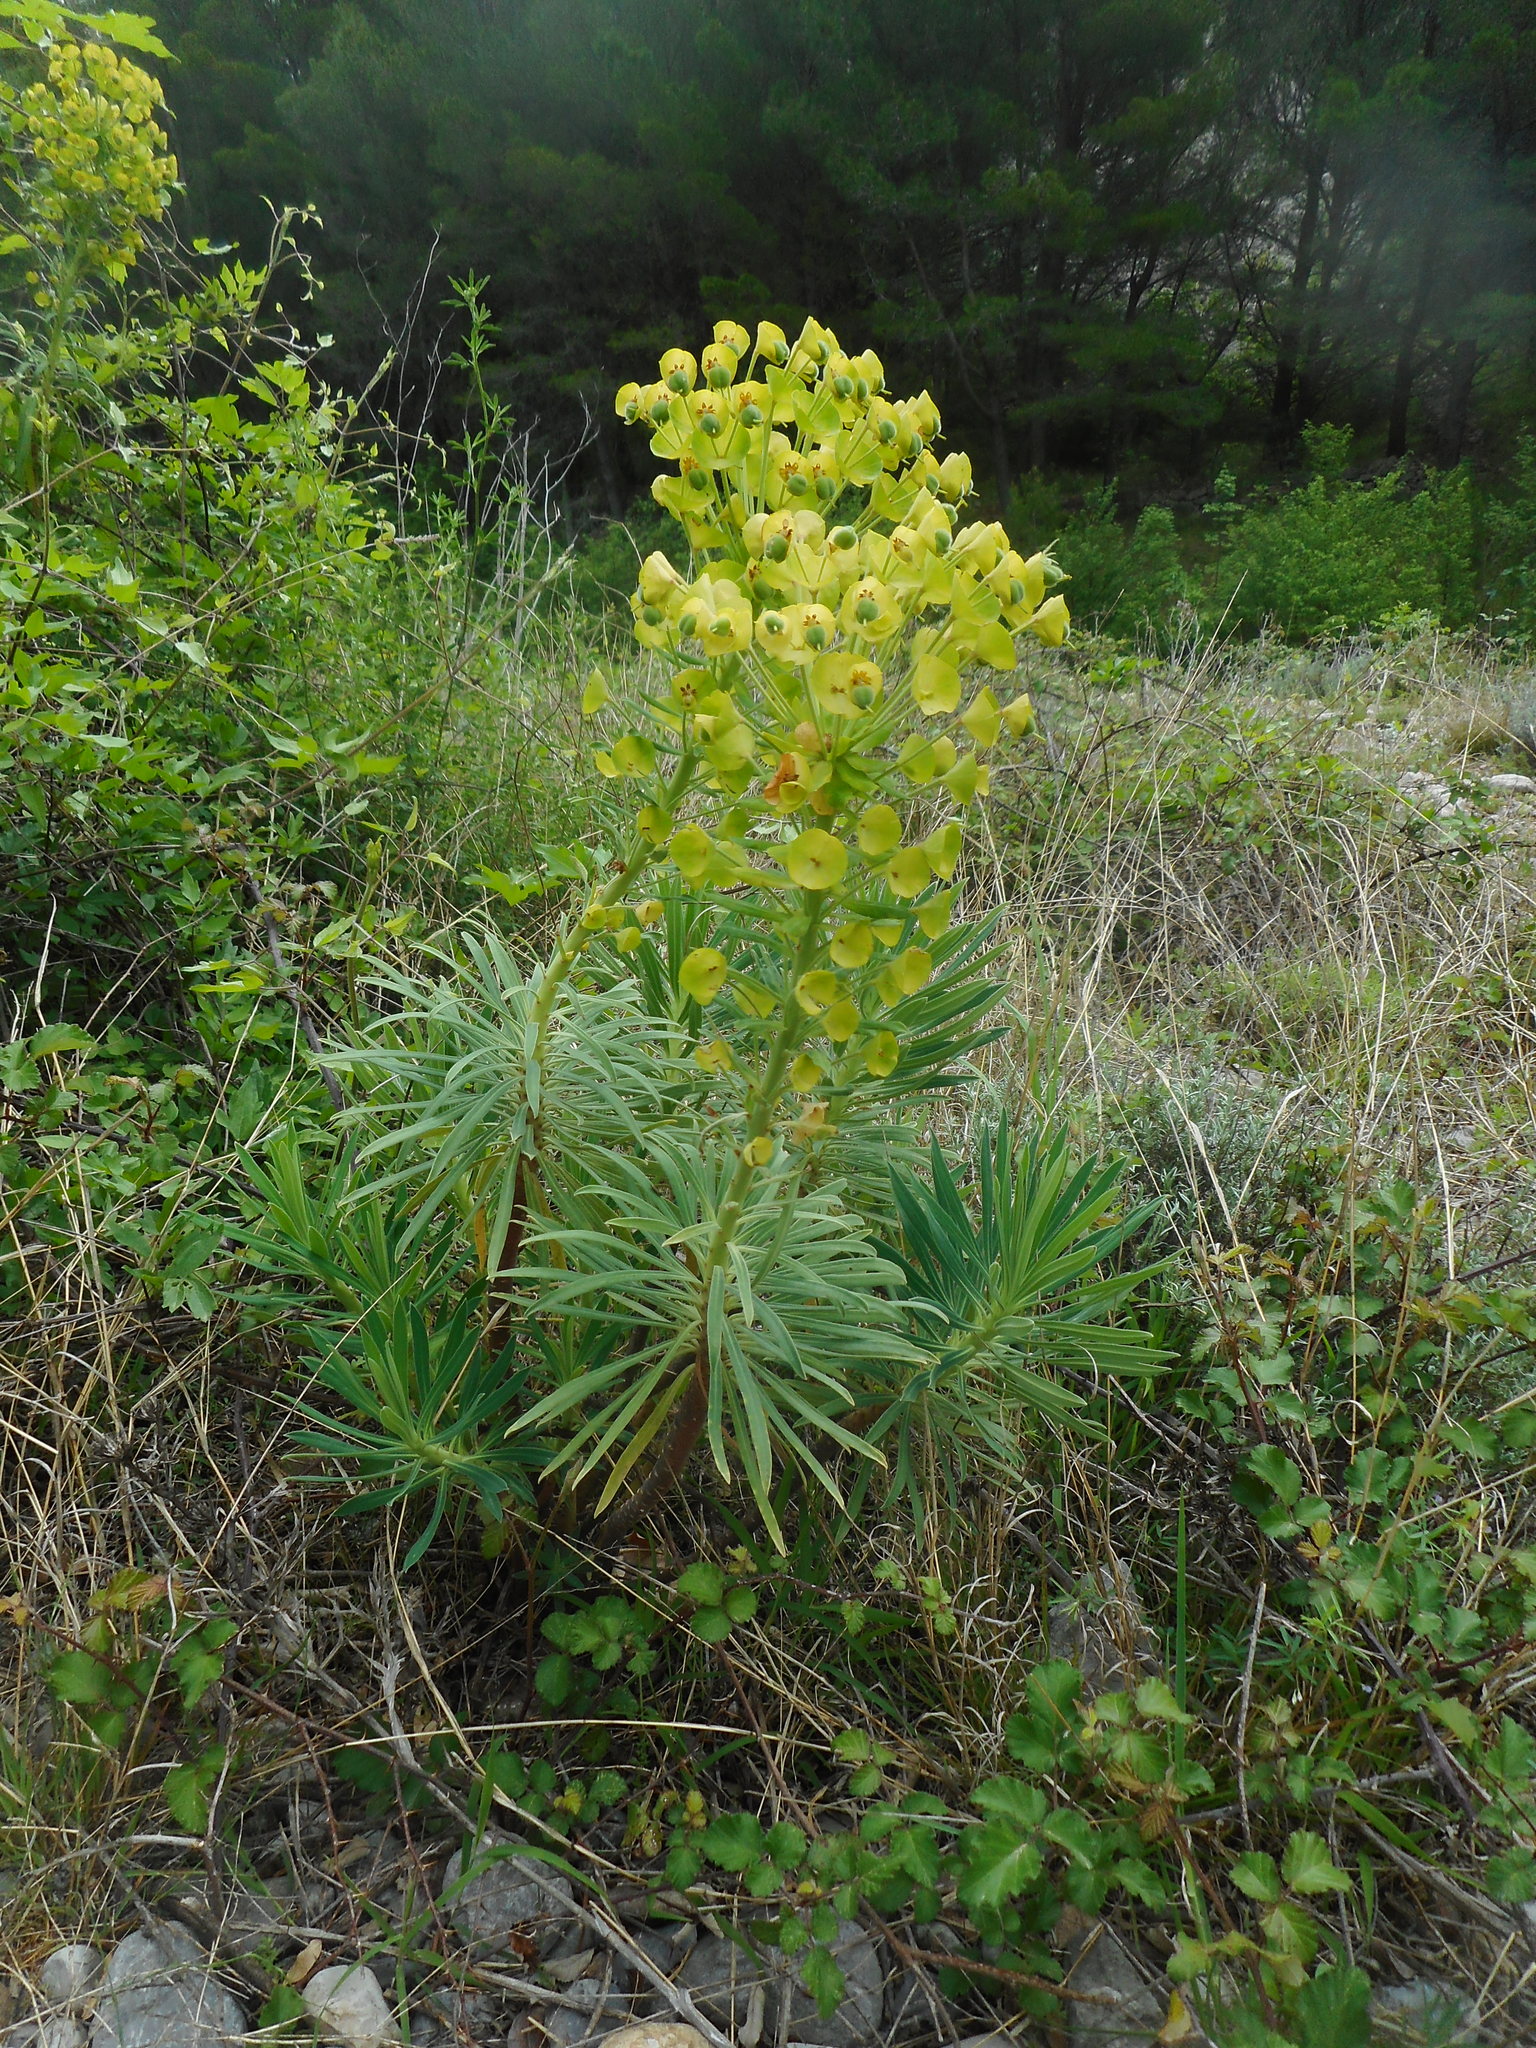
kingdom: Plantae
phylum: Tracheophyta
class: Magnoliopsida
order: Malpighiales
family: Euphorbiaceae
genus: Euphorbia
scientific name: Euphorbia characias
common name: Mediterranean spurge
